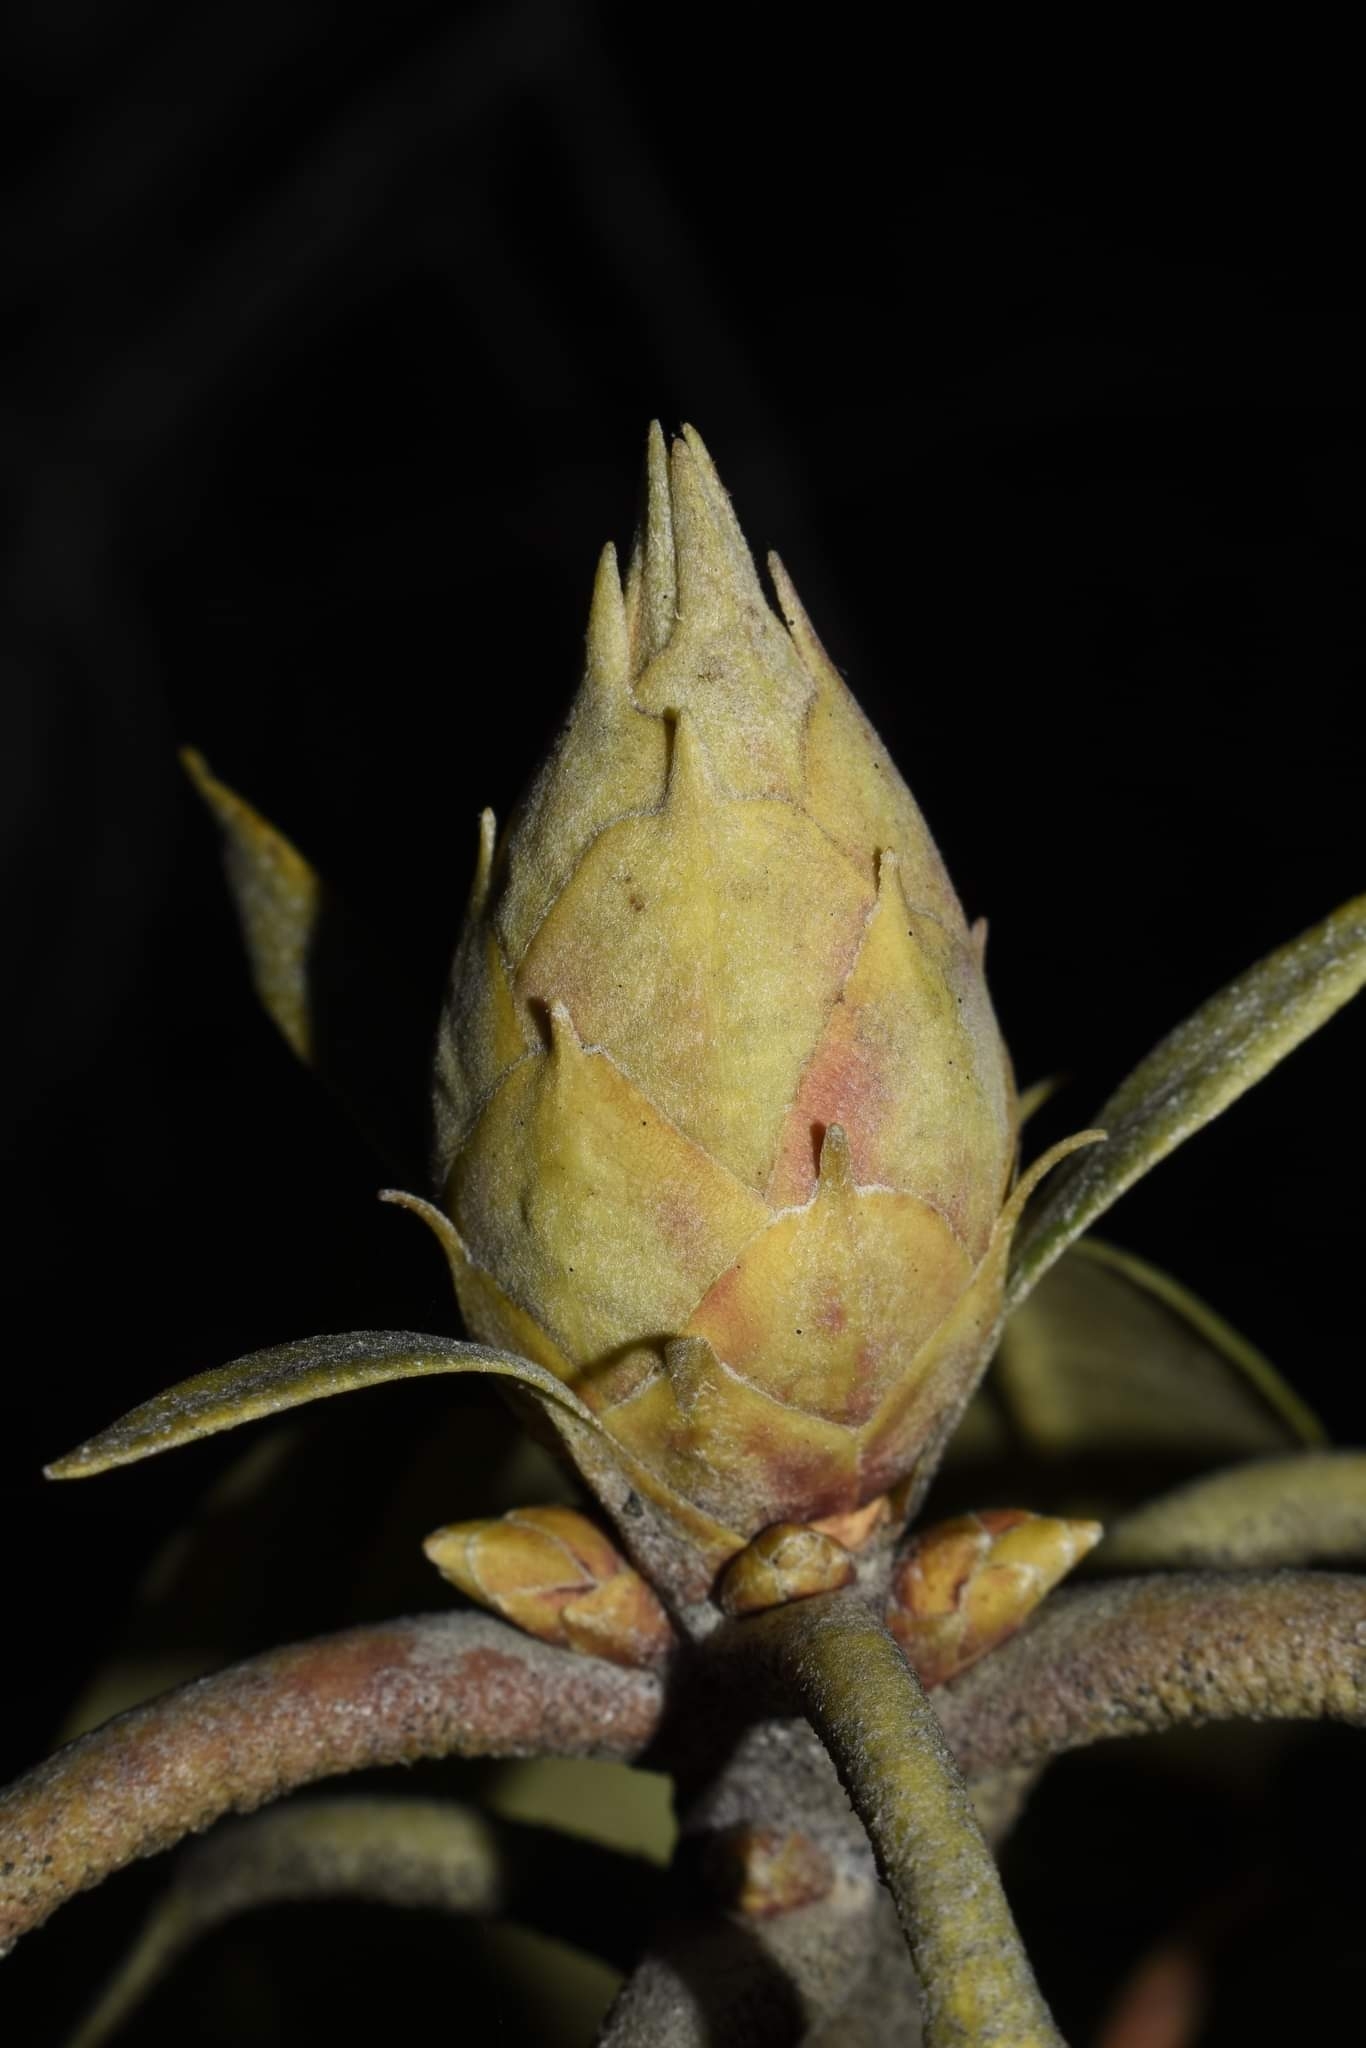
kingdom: Plantae
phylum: Tracheophyta
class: Magnoliopsida
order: Ericales
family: Ericaceae
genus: Rhododendron
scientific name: Rhododendron maximum
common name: Great rhododendron
